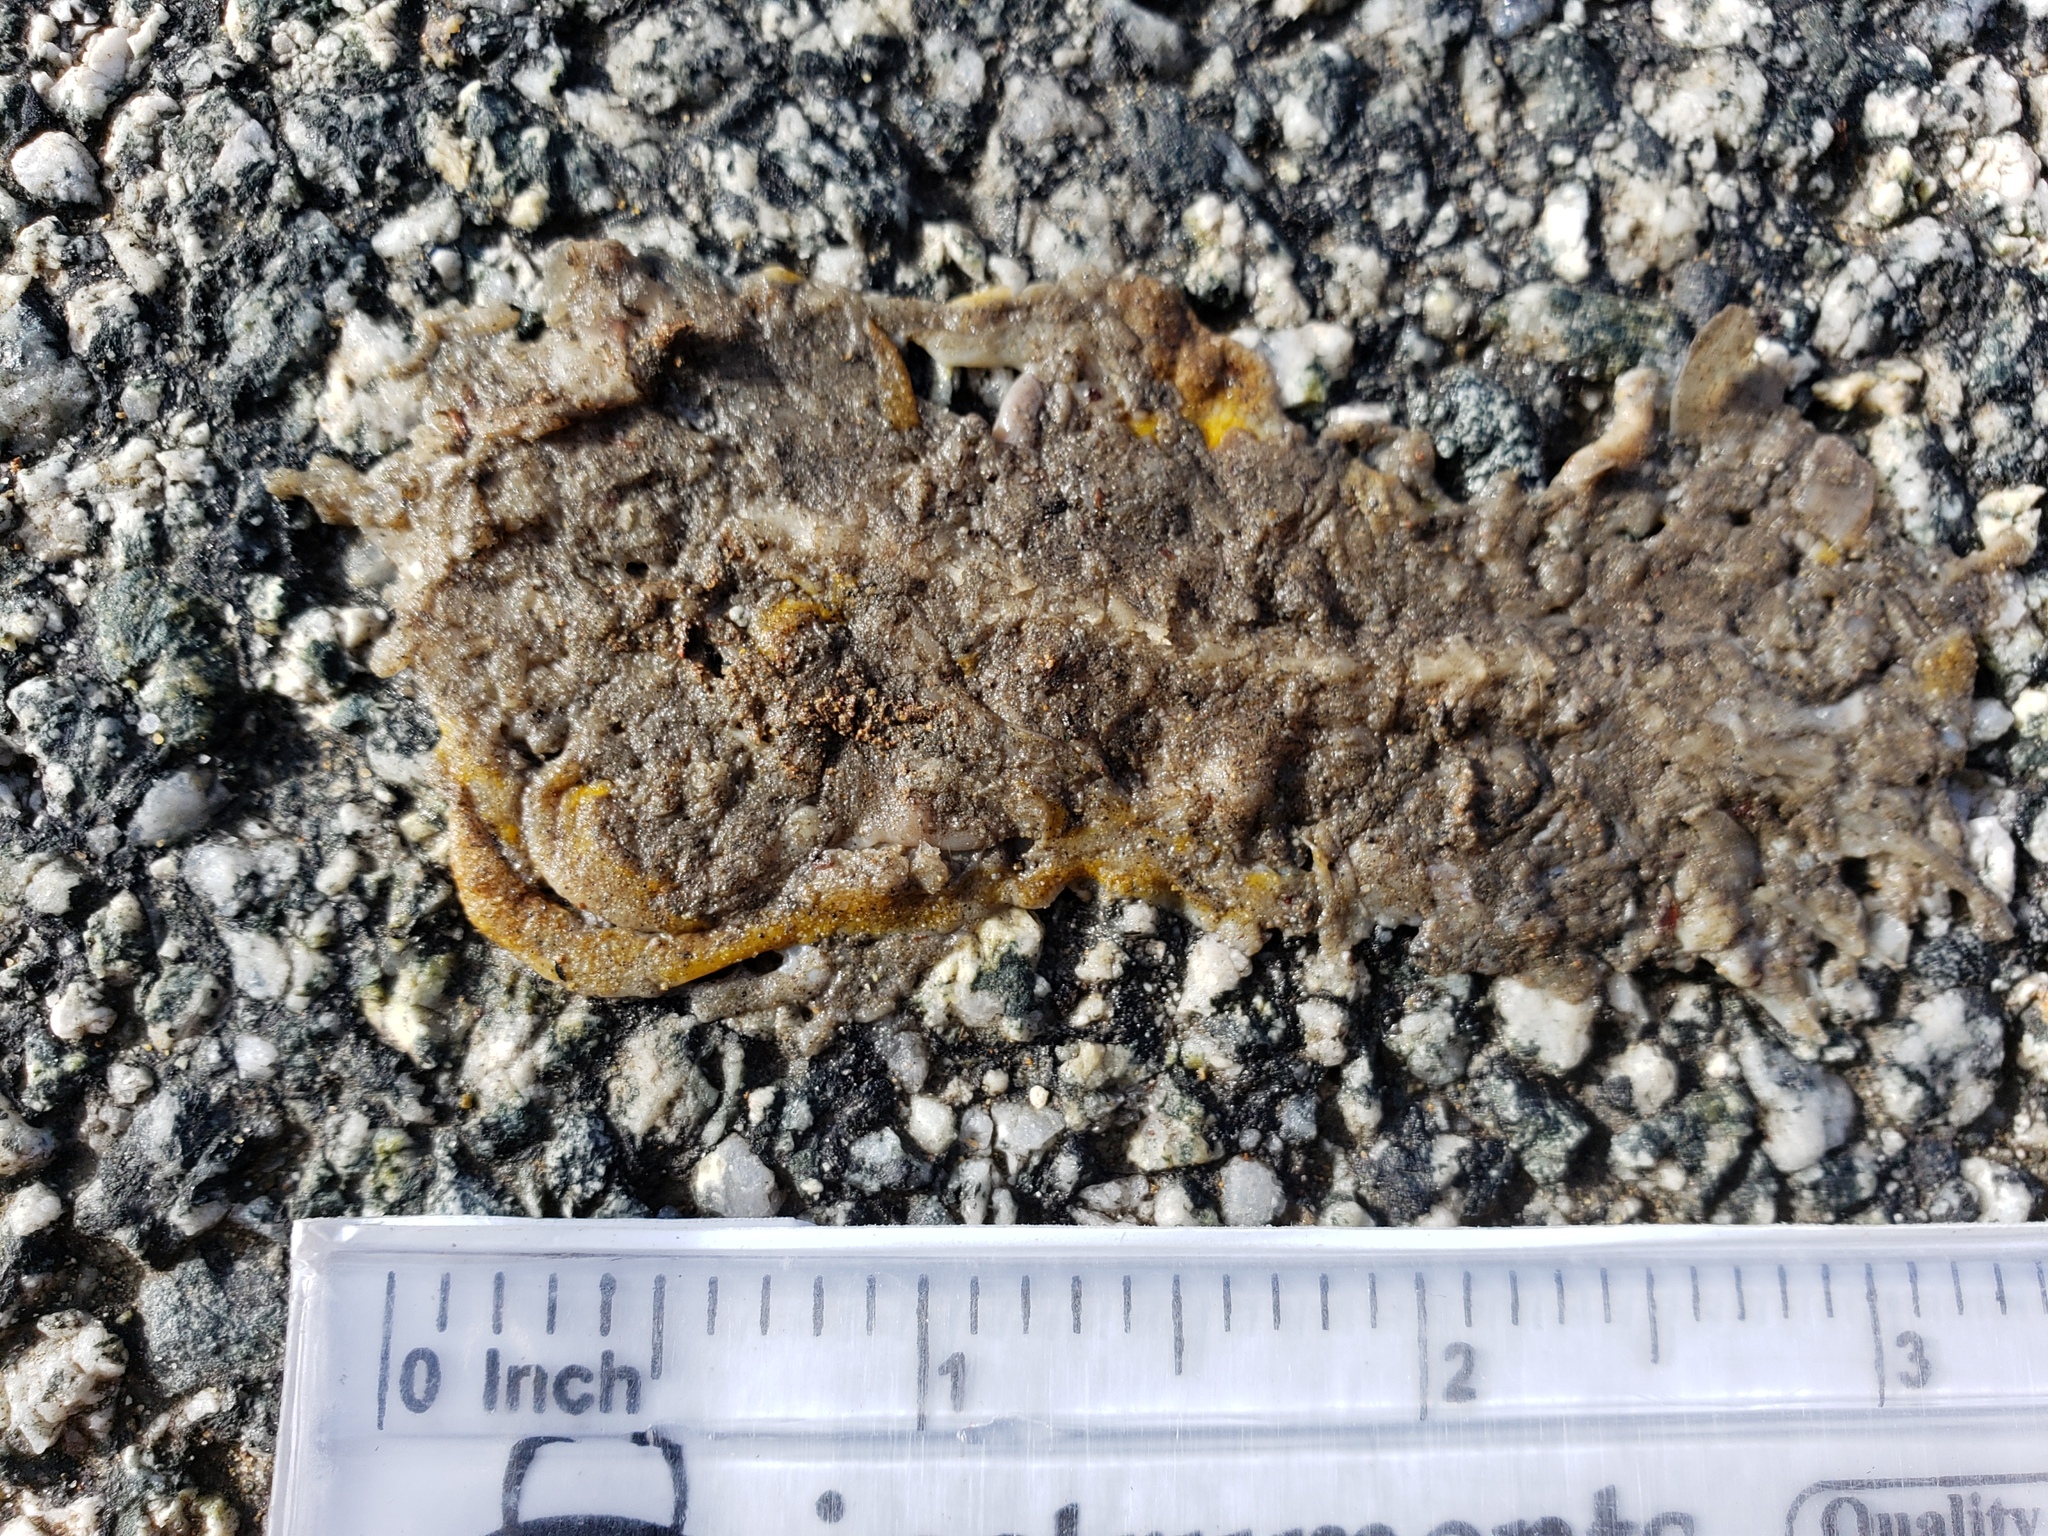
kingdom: Animalia
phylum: Chordata
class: Amphibia
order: Caudata
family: Salamandridae
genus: Taricha
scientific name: Taricha
